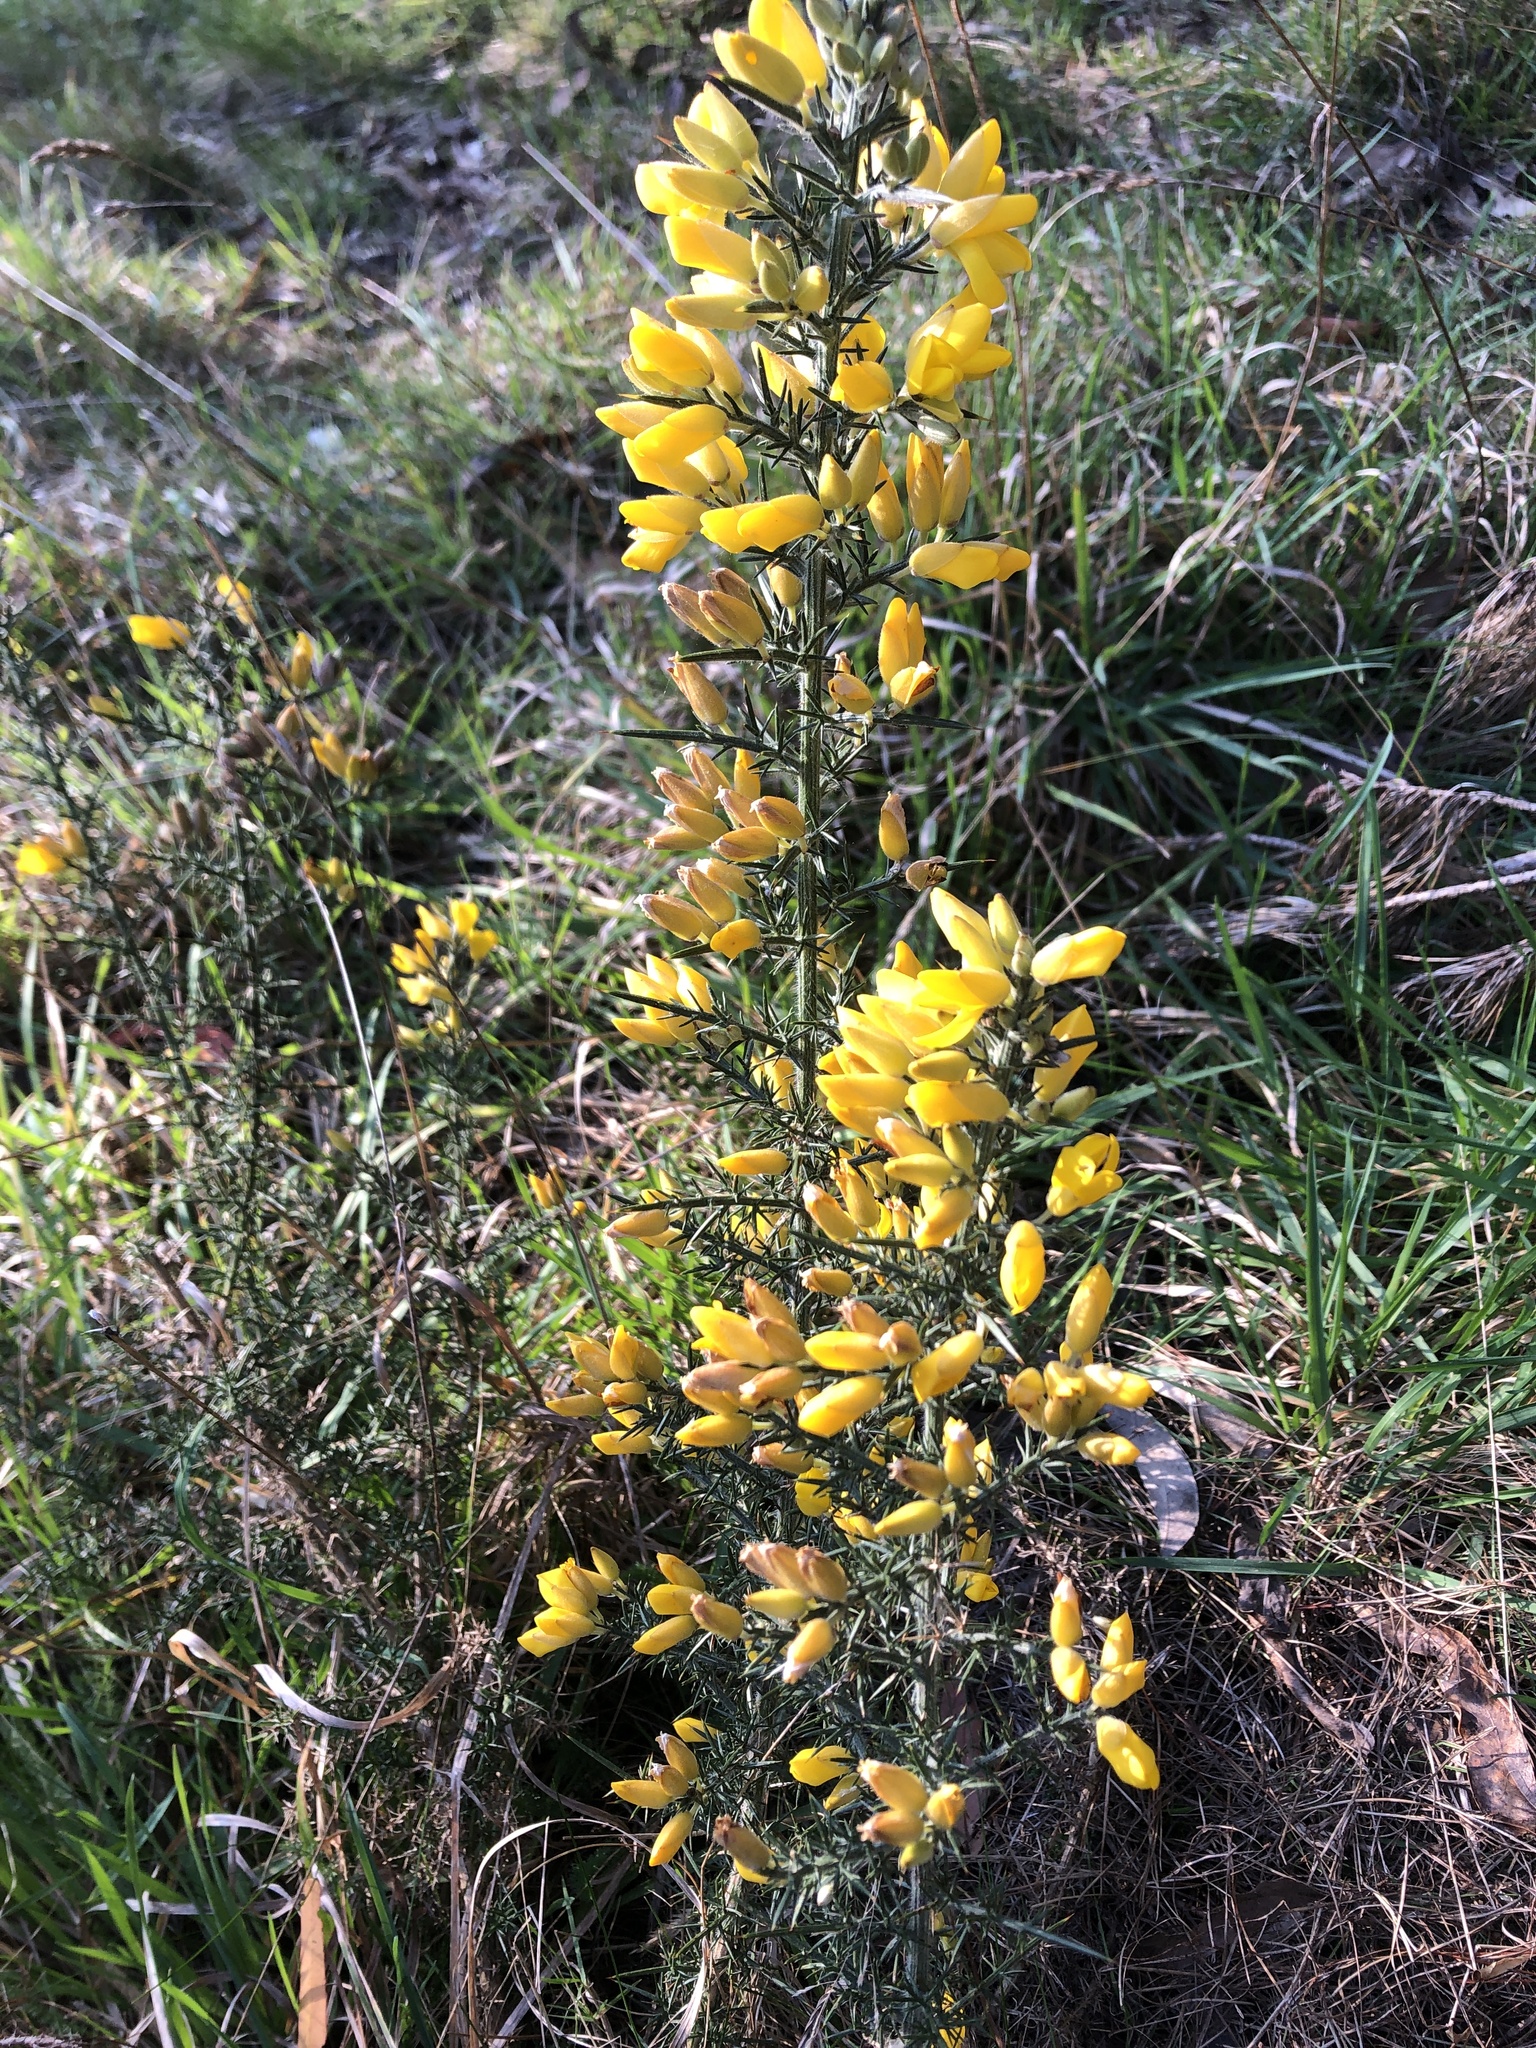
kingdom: Plantae
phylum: Tracheophyta
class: Magnoliopsida
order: Fabales
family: Fabaceae
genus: Ulex
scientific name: Ulex europaeus
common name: Common gorse
